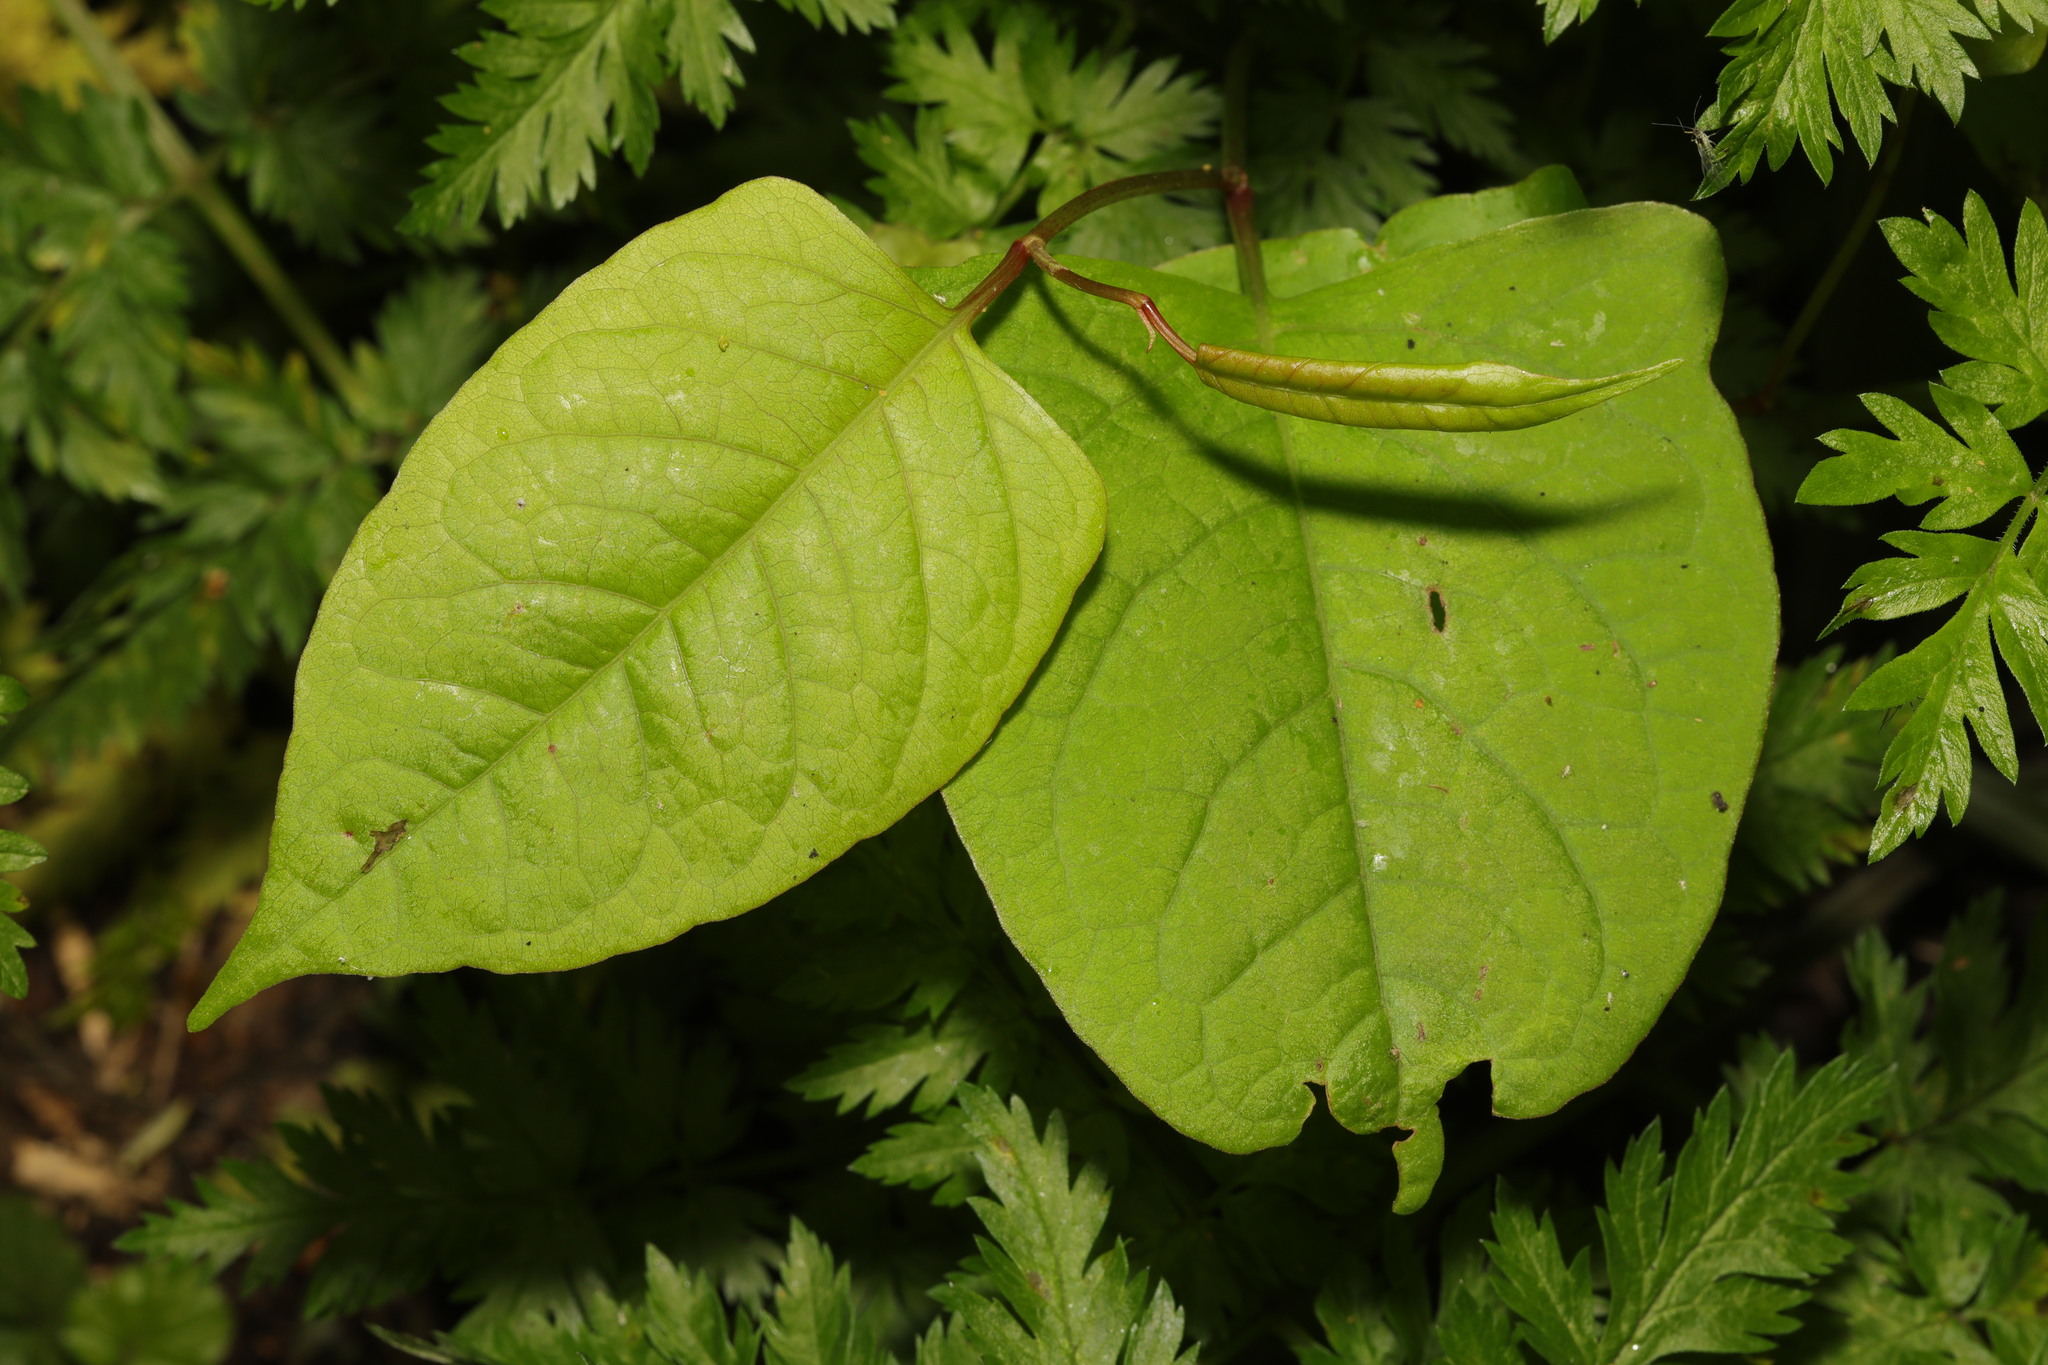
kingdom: Plantae
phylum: Tracheophyta
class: Magnoliopsida
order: Caryophyllales
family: Polygonaceae
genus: Reynoutria
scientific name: Reynoutria japonica
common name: Japanese knotweed
